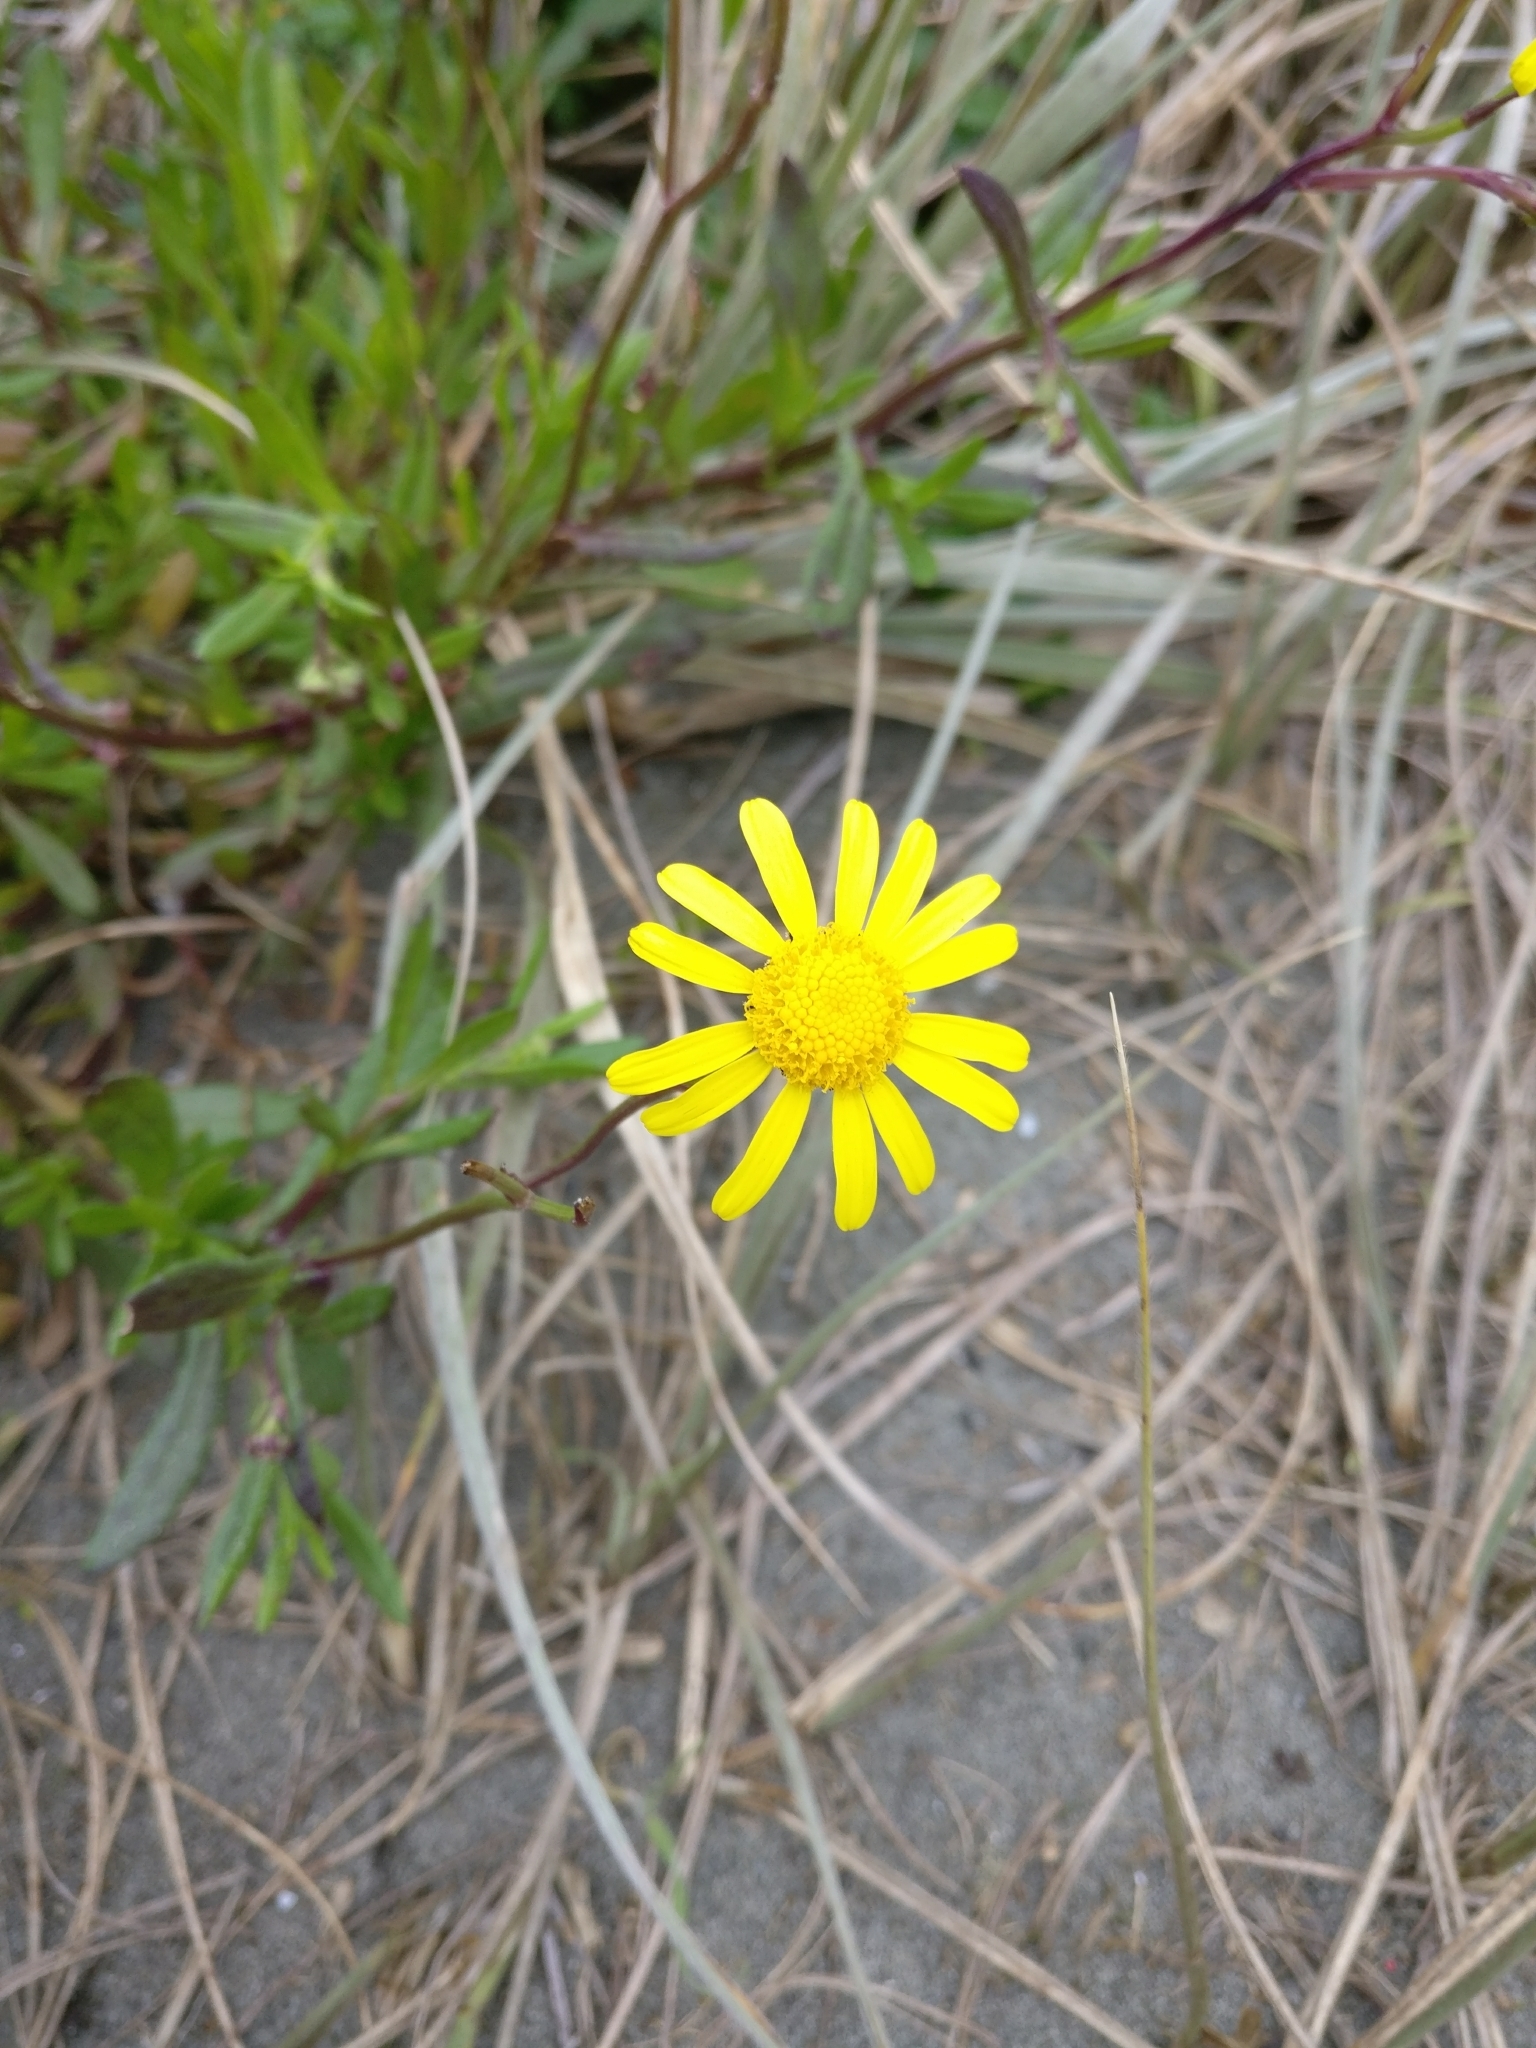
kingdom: Plantae
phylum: Tracheophyta
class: Magnoliopsida
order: Asterales
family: Asteraceae
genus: Senecio
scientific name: Senecio skirrhodon
